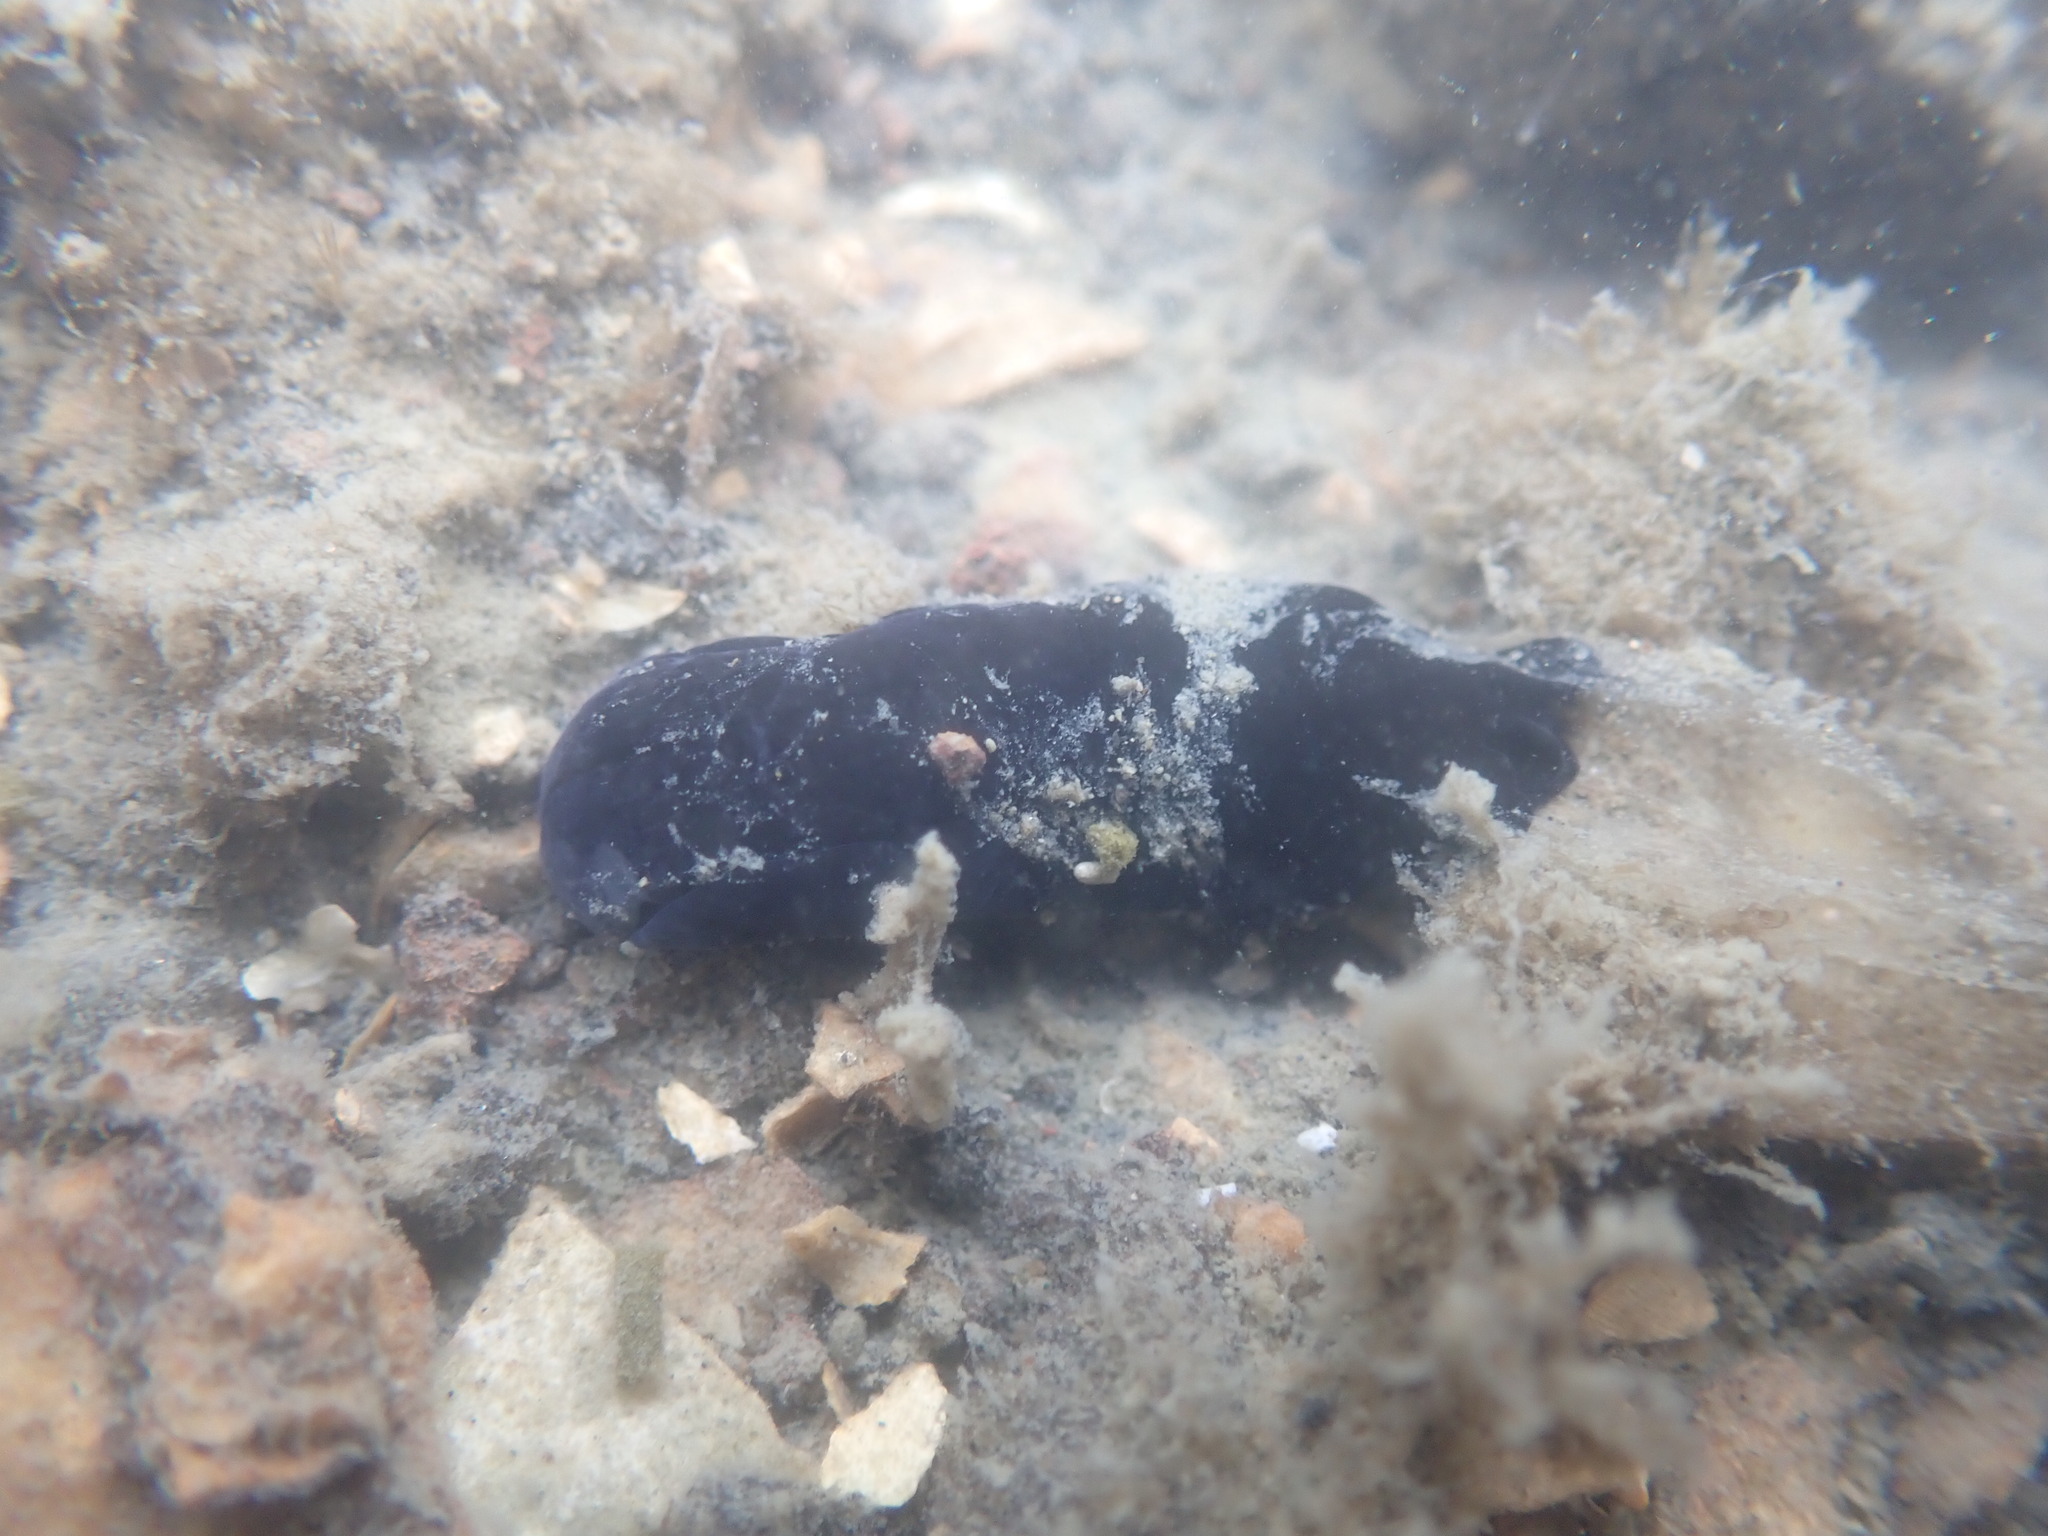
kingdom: Animalia
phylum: Mollusca
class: Gastropoda
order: Cephalaspidea
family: Aglajidae
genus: Melanochlamys
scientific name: Melanochlamys cylindrica
